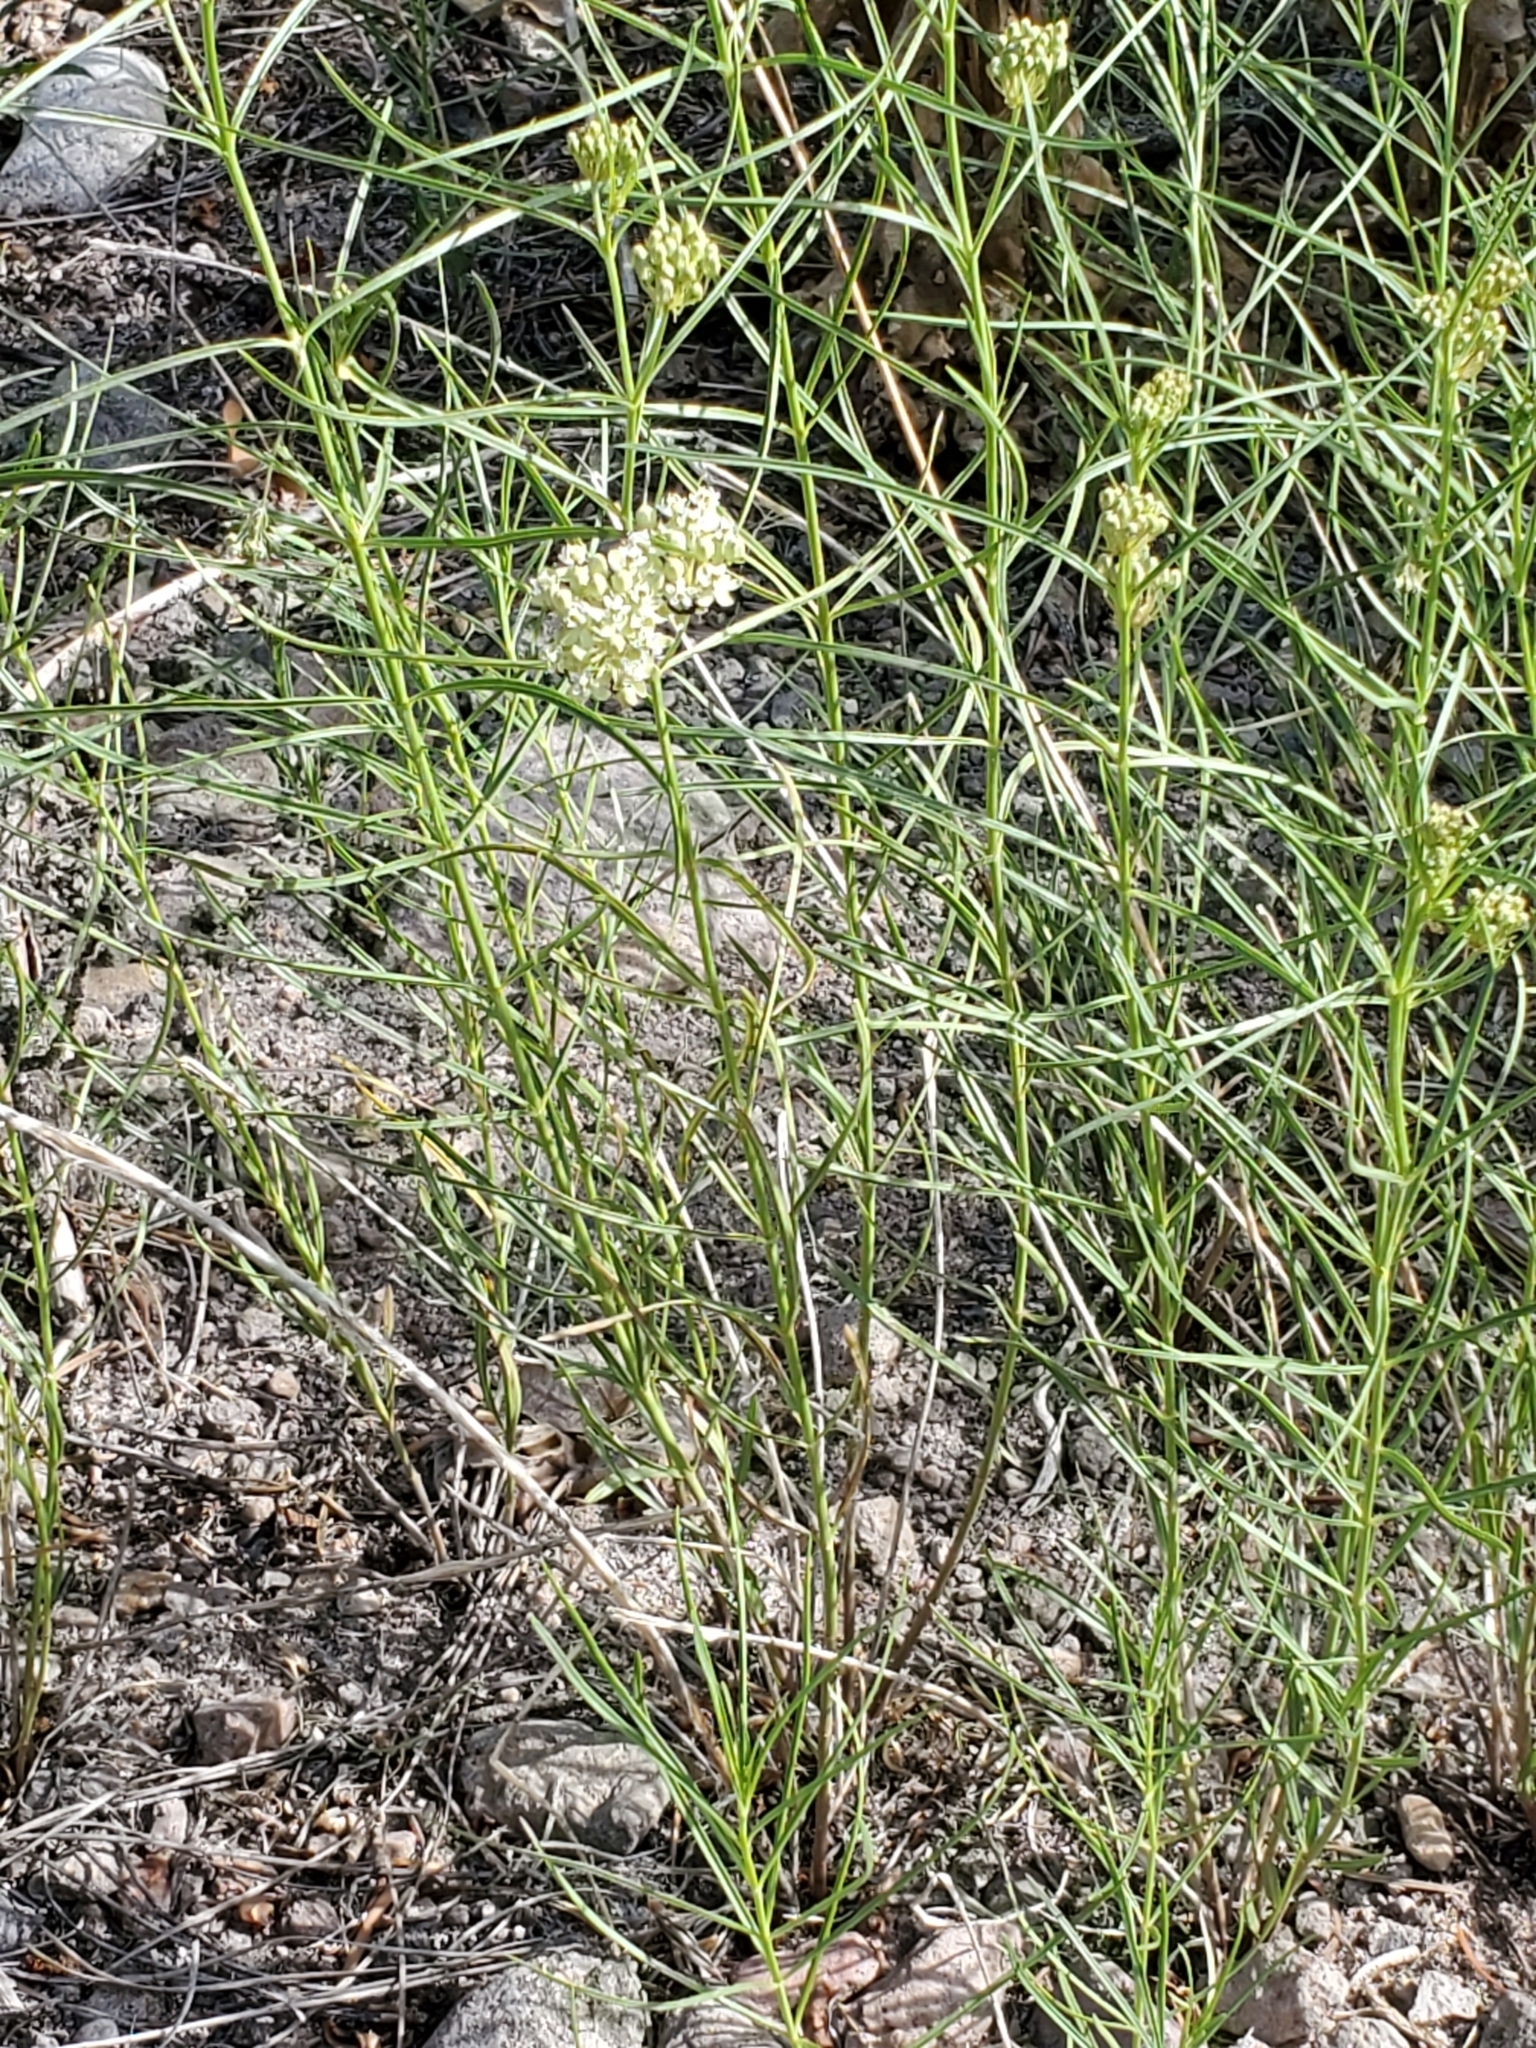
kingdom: Plantae
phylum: Tracheophyta
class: Magnoliopsida
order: Gentianales
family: Apocynaceae
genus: Asclepias
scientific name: Asclepias subverticillata
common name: Horsetail milkweed
